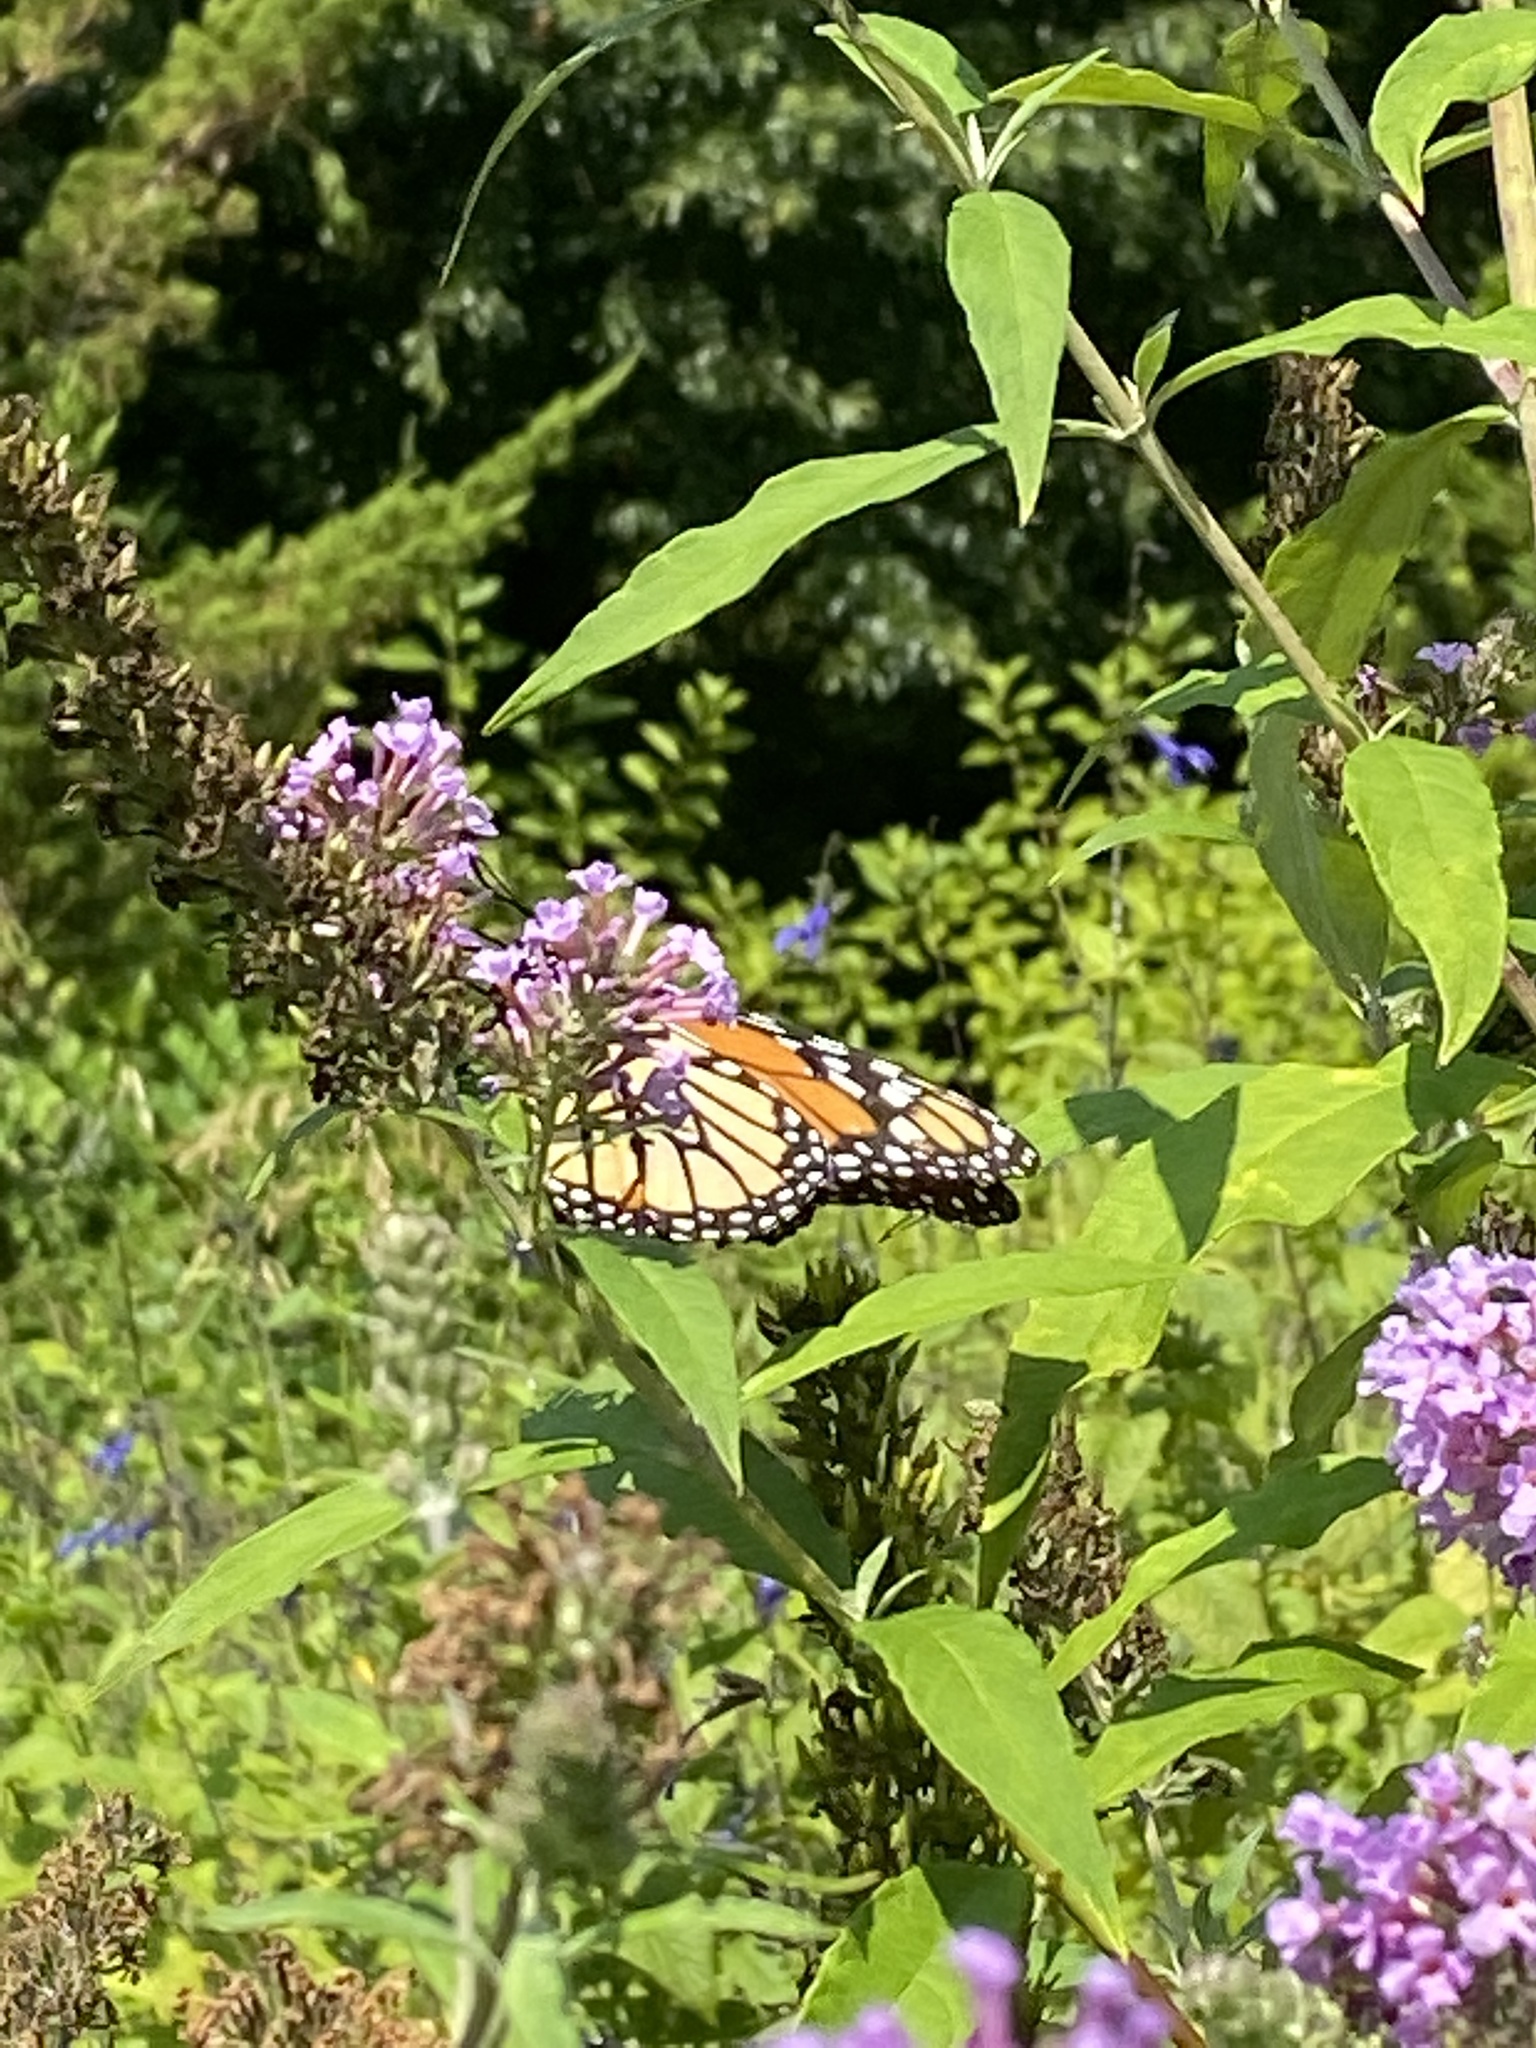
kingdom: Animalia
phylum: Arthropoda
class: Insecta
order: Lepidoptera
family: Nymphalidae
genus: Danaus
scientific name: Danaus plexippus
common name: Monarch
